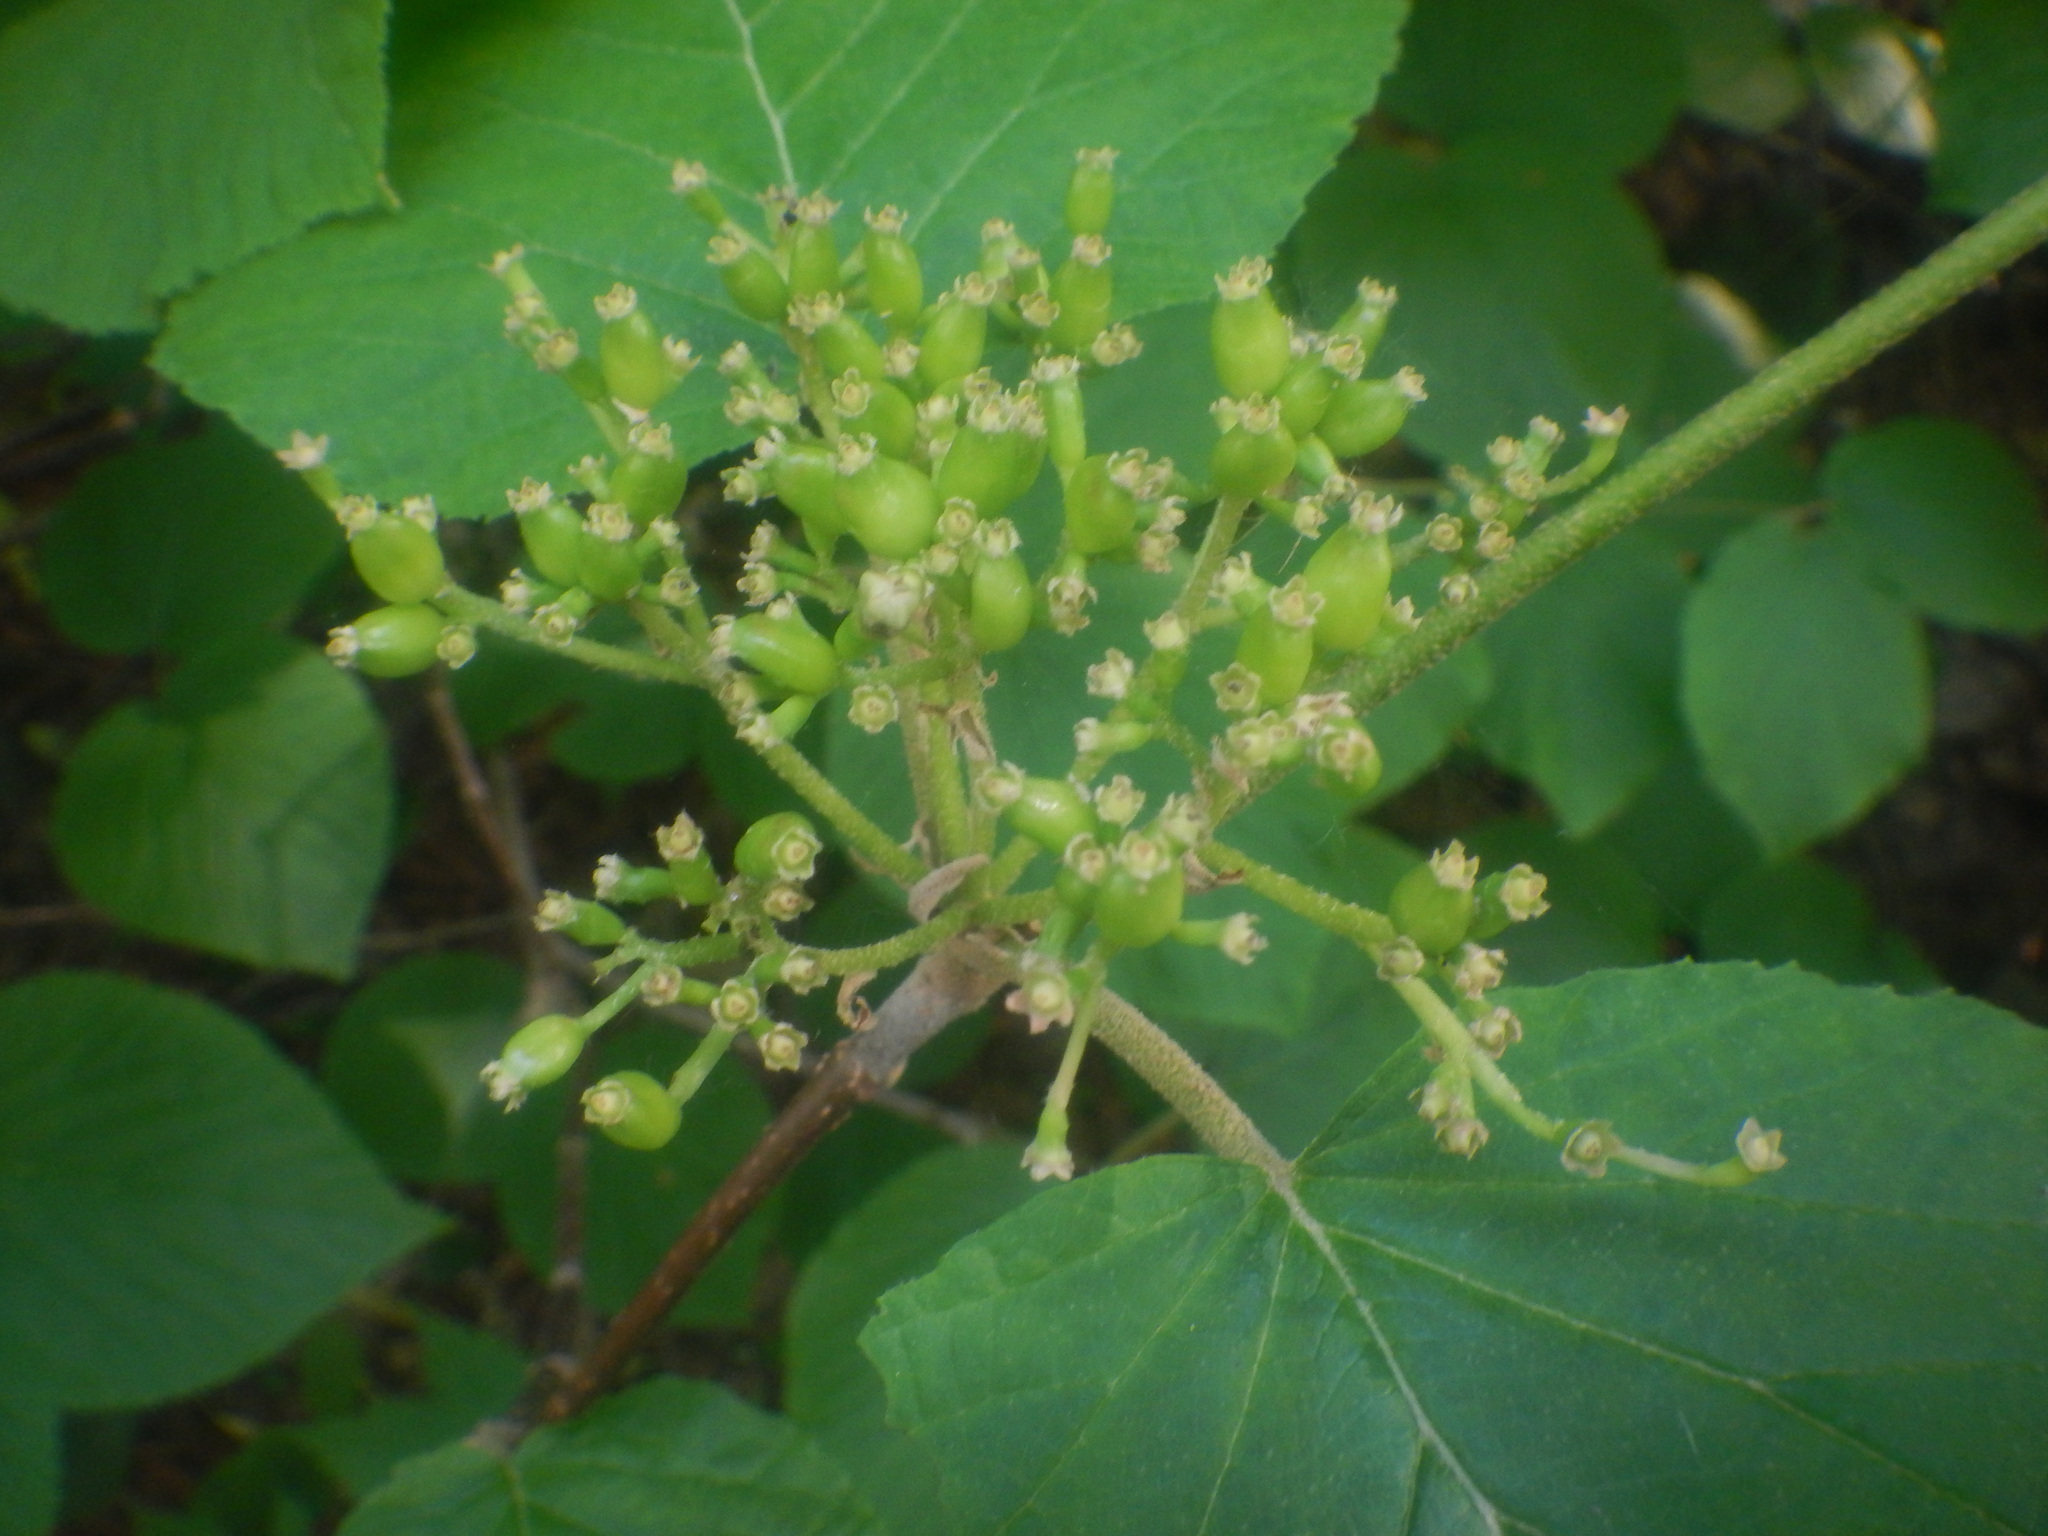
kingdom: Plantae
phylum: Tracheophyta
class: Magnoliopsida
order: Dipsacales
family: Viburnaceae
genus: Viburnum
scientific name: Viburnum lantanoides
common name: Hobblebush
